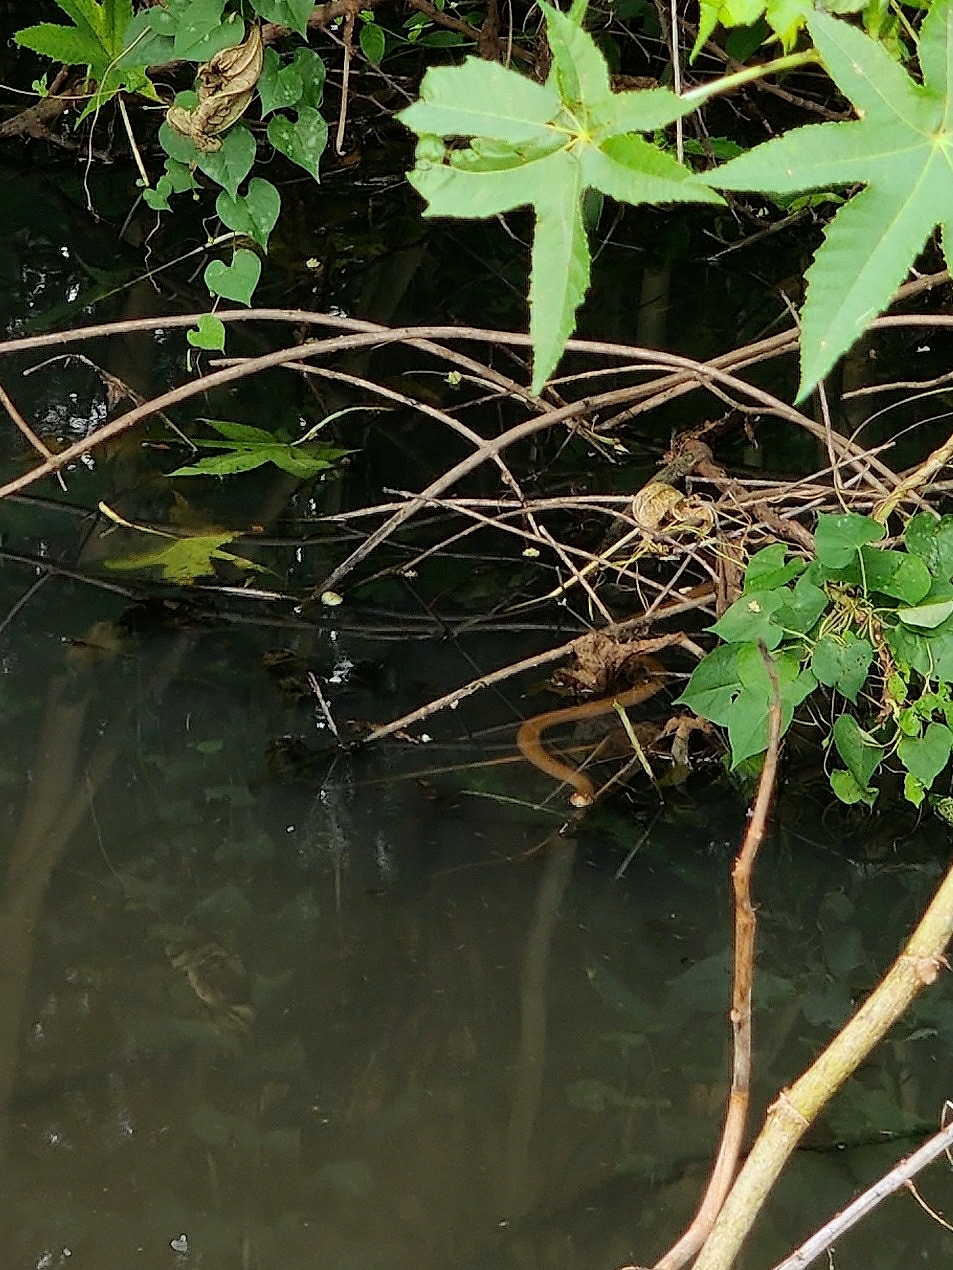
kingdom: Animalia
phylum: Chordata
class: Squamata
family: Colubridae
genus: Fowlea
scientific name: Fowlea piscator
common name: Asiatic water snake
